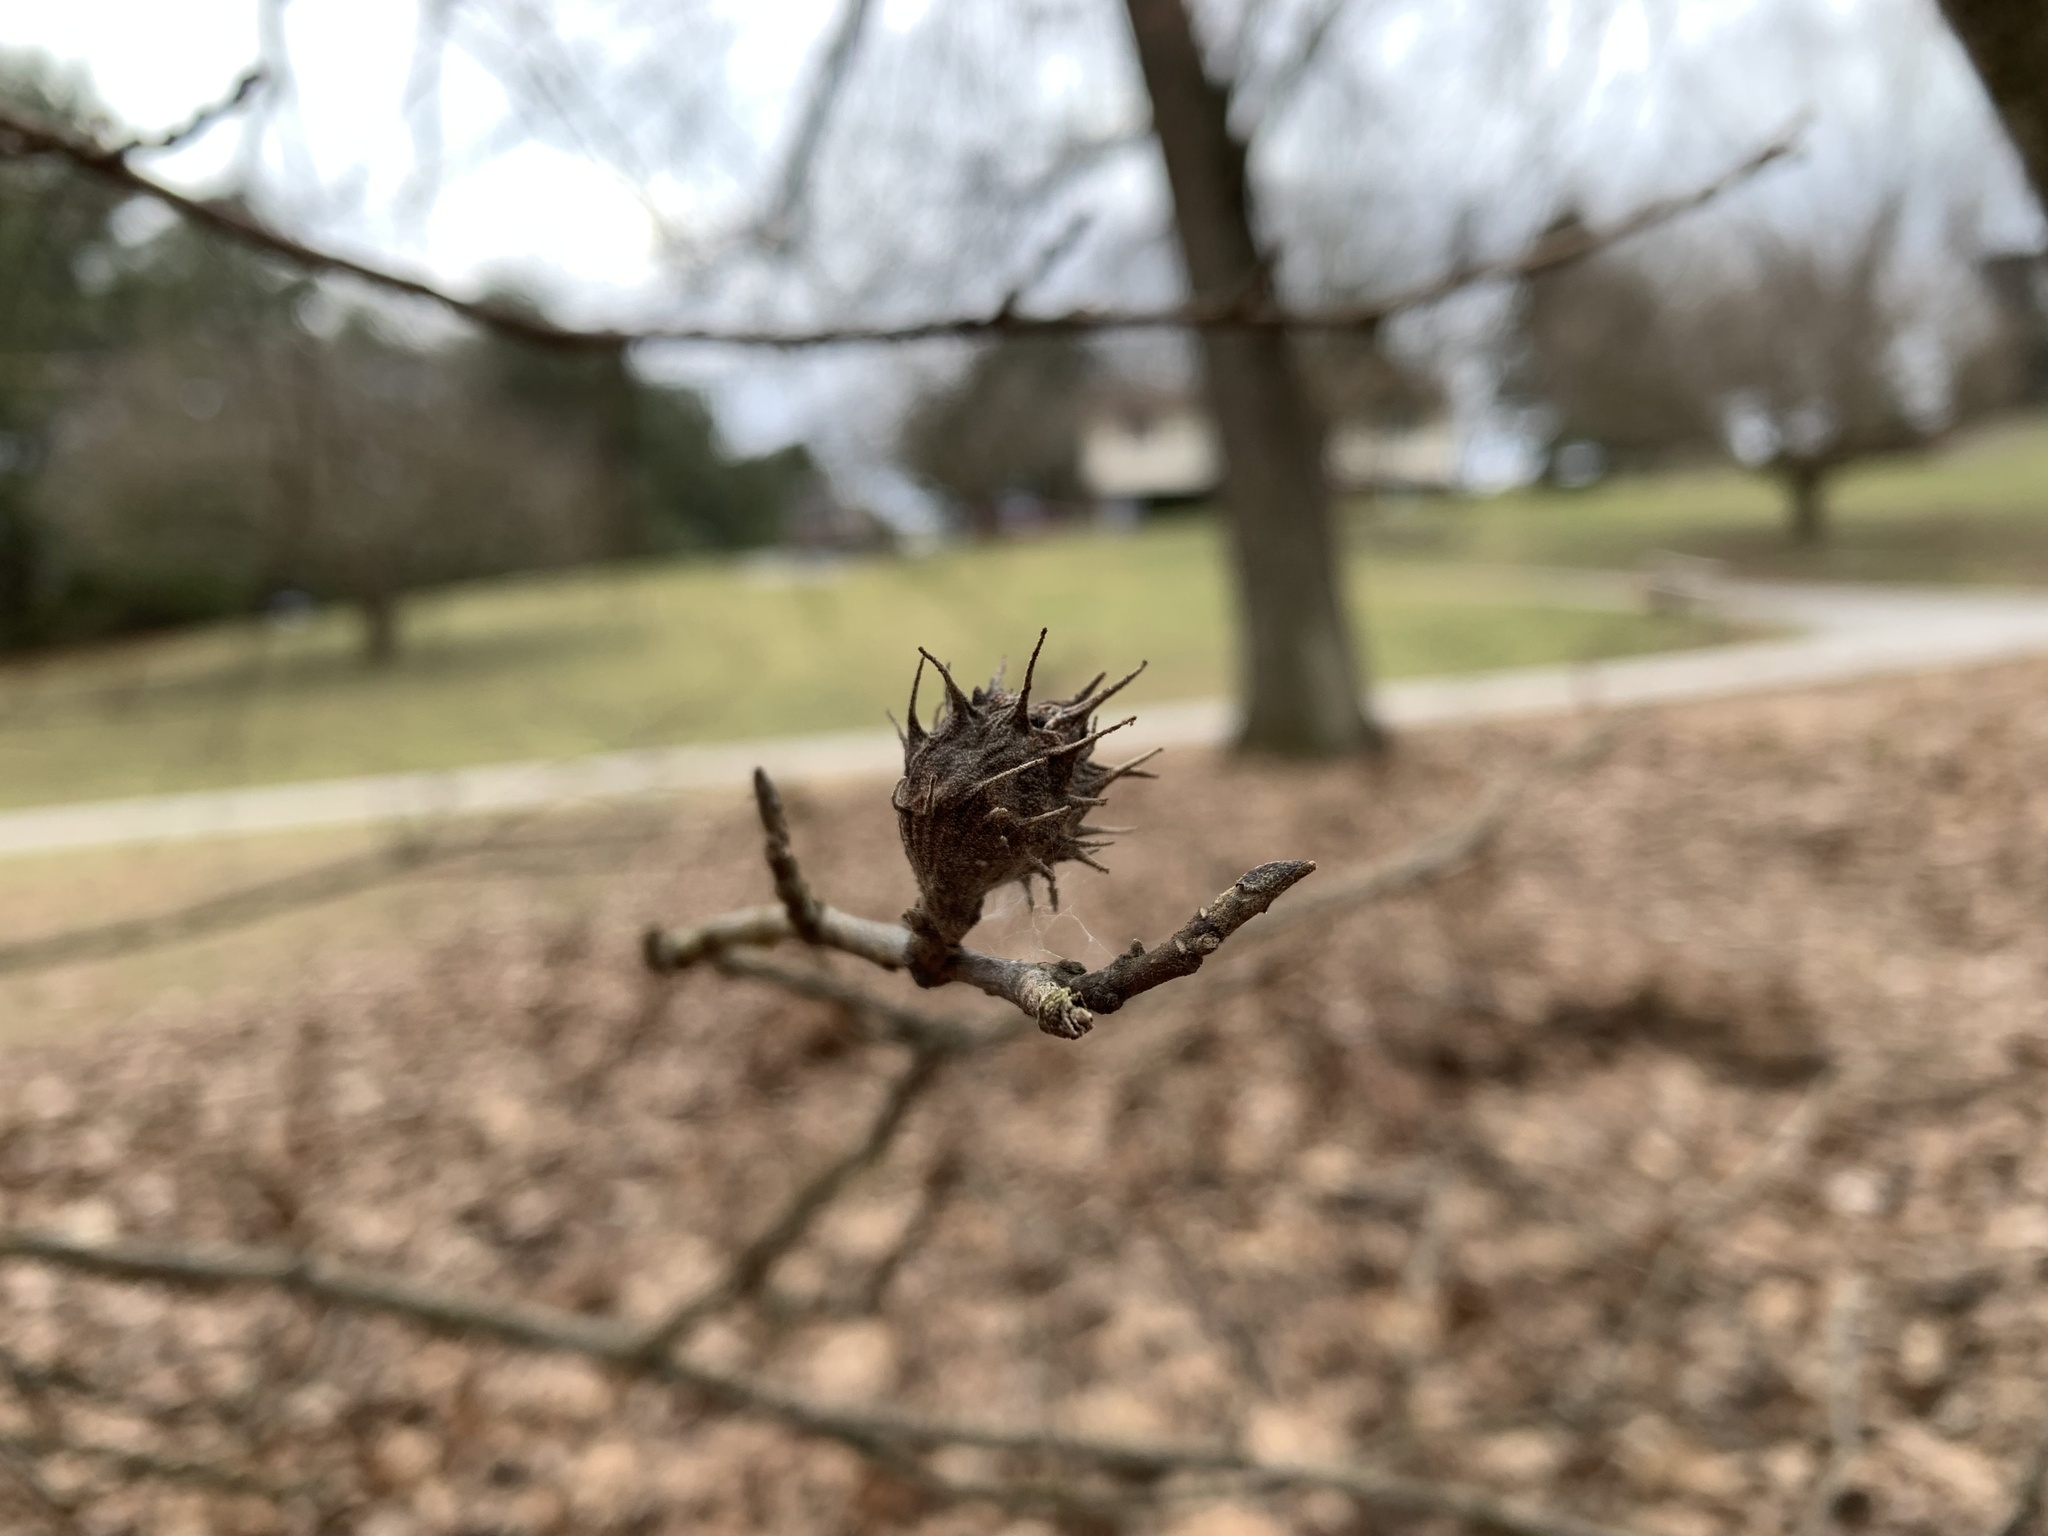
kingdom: Animalia
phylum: Arthropoda
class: Insecta
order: Hemiptera
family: Aphididae
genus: Hamamelistes
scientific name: Hamamelistes spinosus
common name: Witch hazel gall aphid
